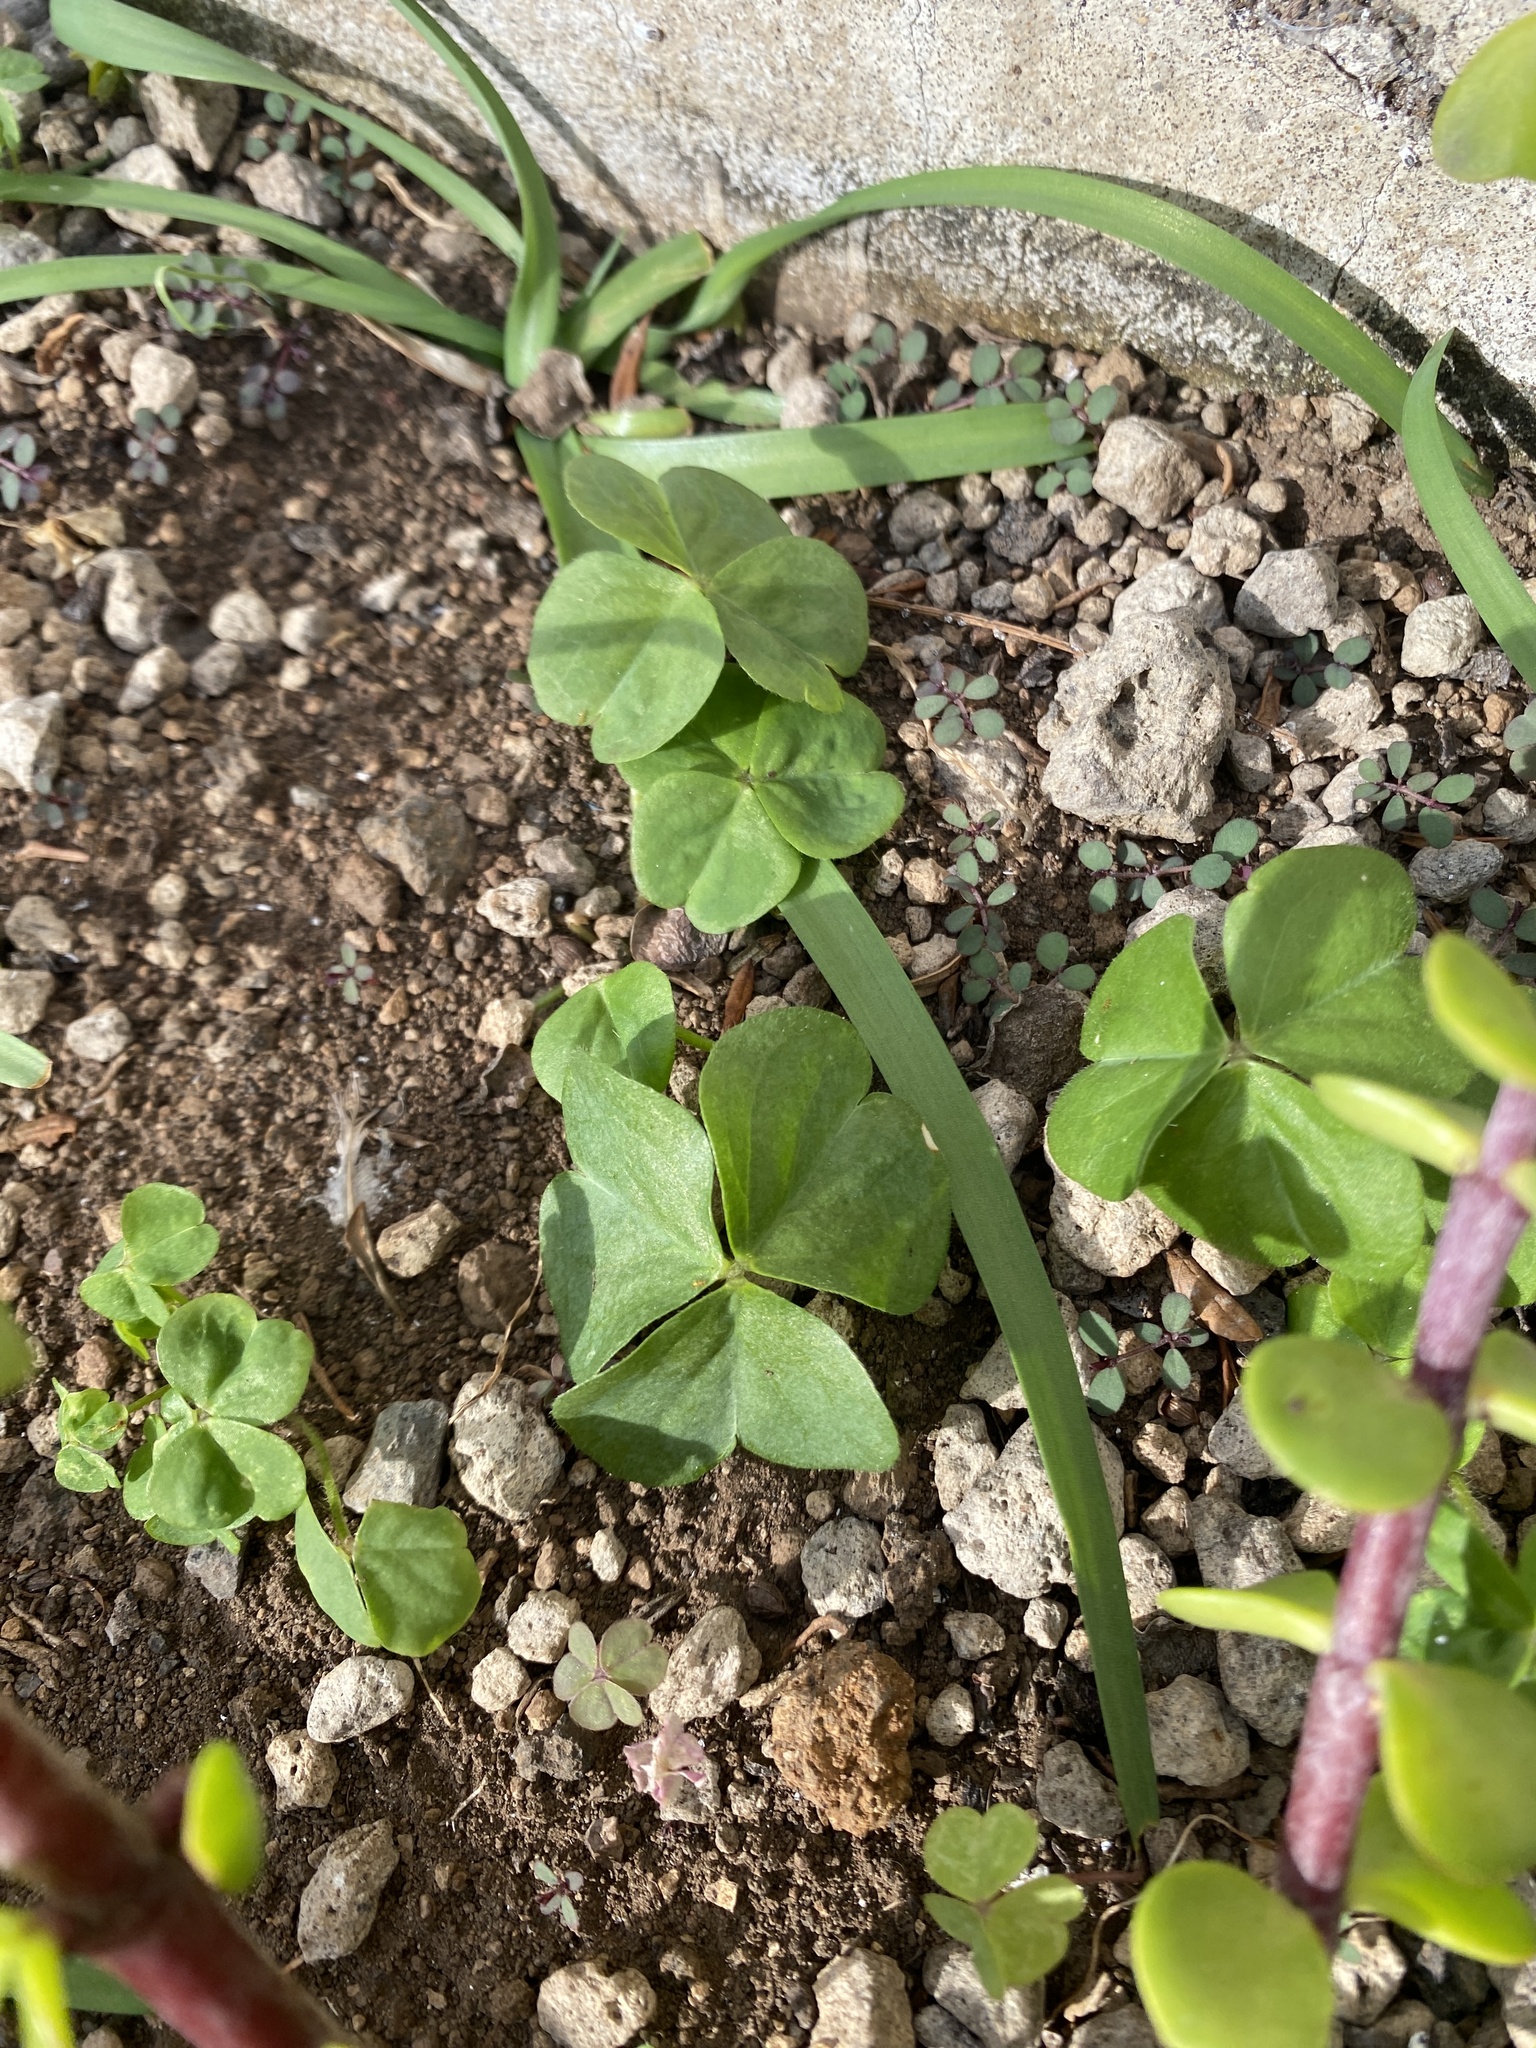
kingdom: Plantae
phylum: Tracheophyta
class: Magnoliopsida
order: Oxalidales
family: Oxalidaceae
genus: Oxalis
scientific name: Oxalis debilis
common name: Large-flowered pink-sorrel
